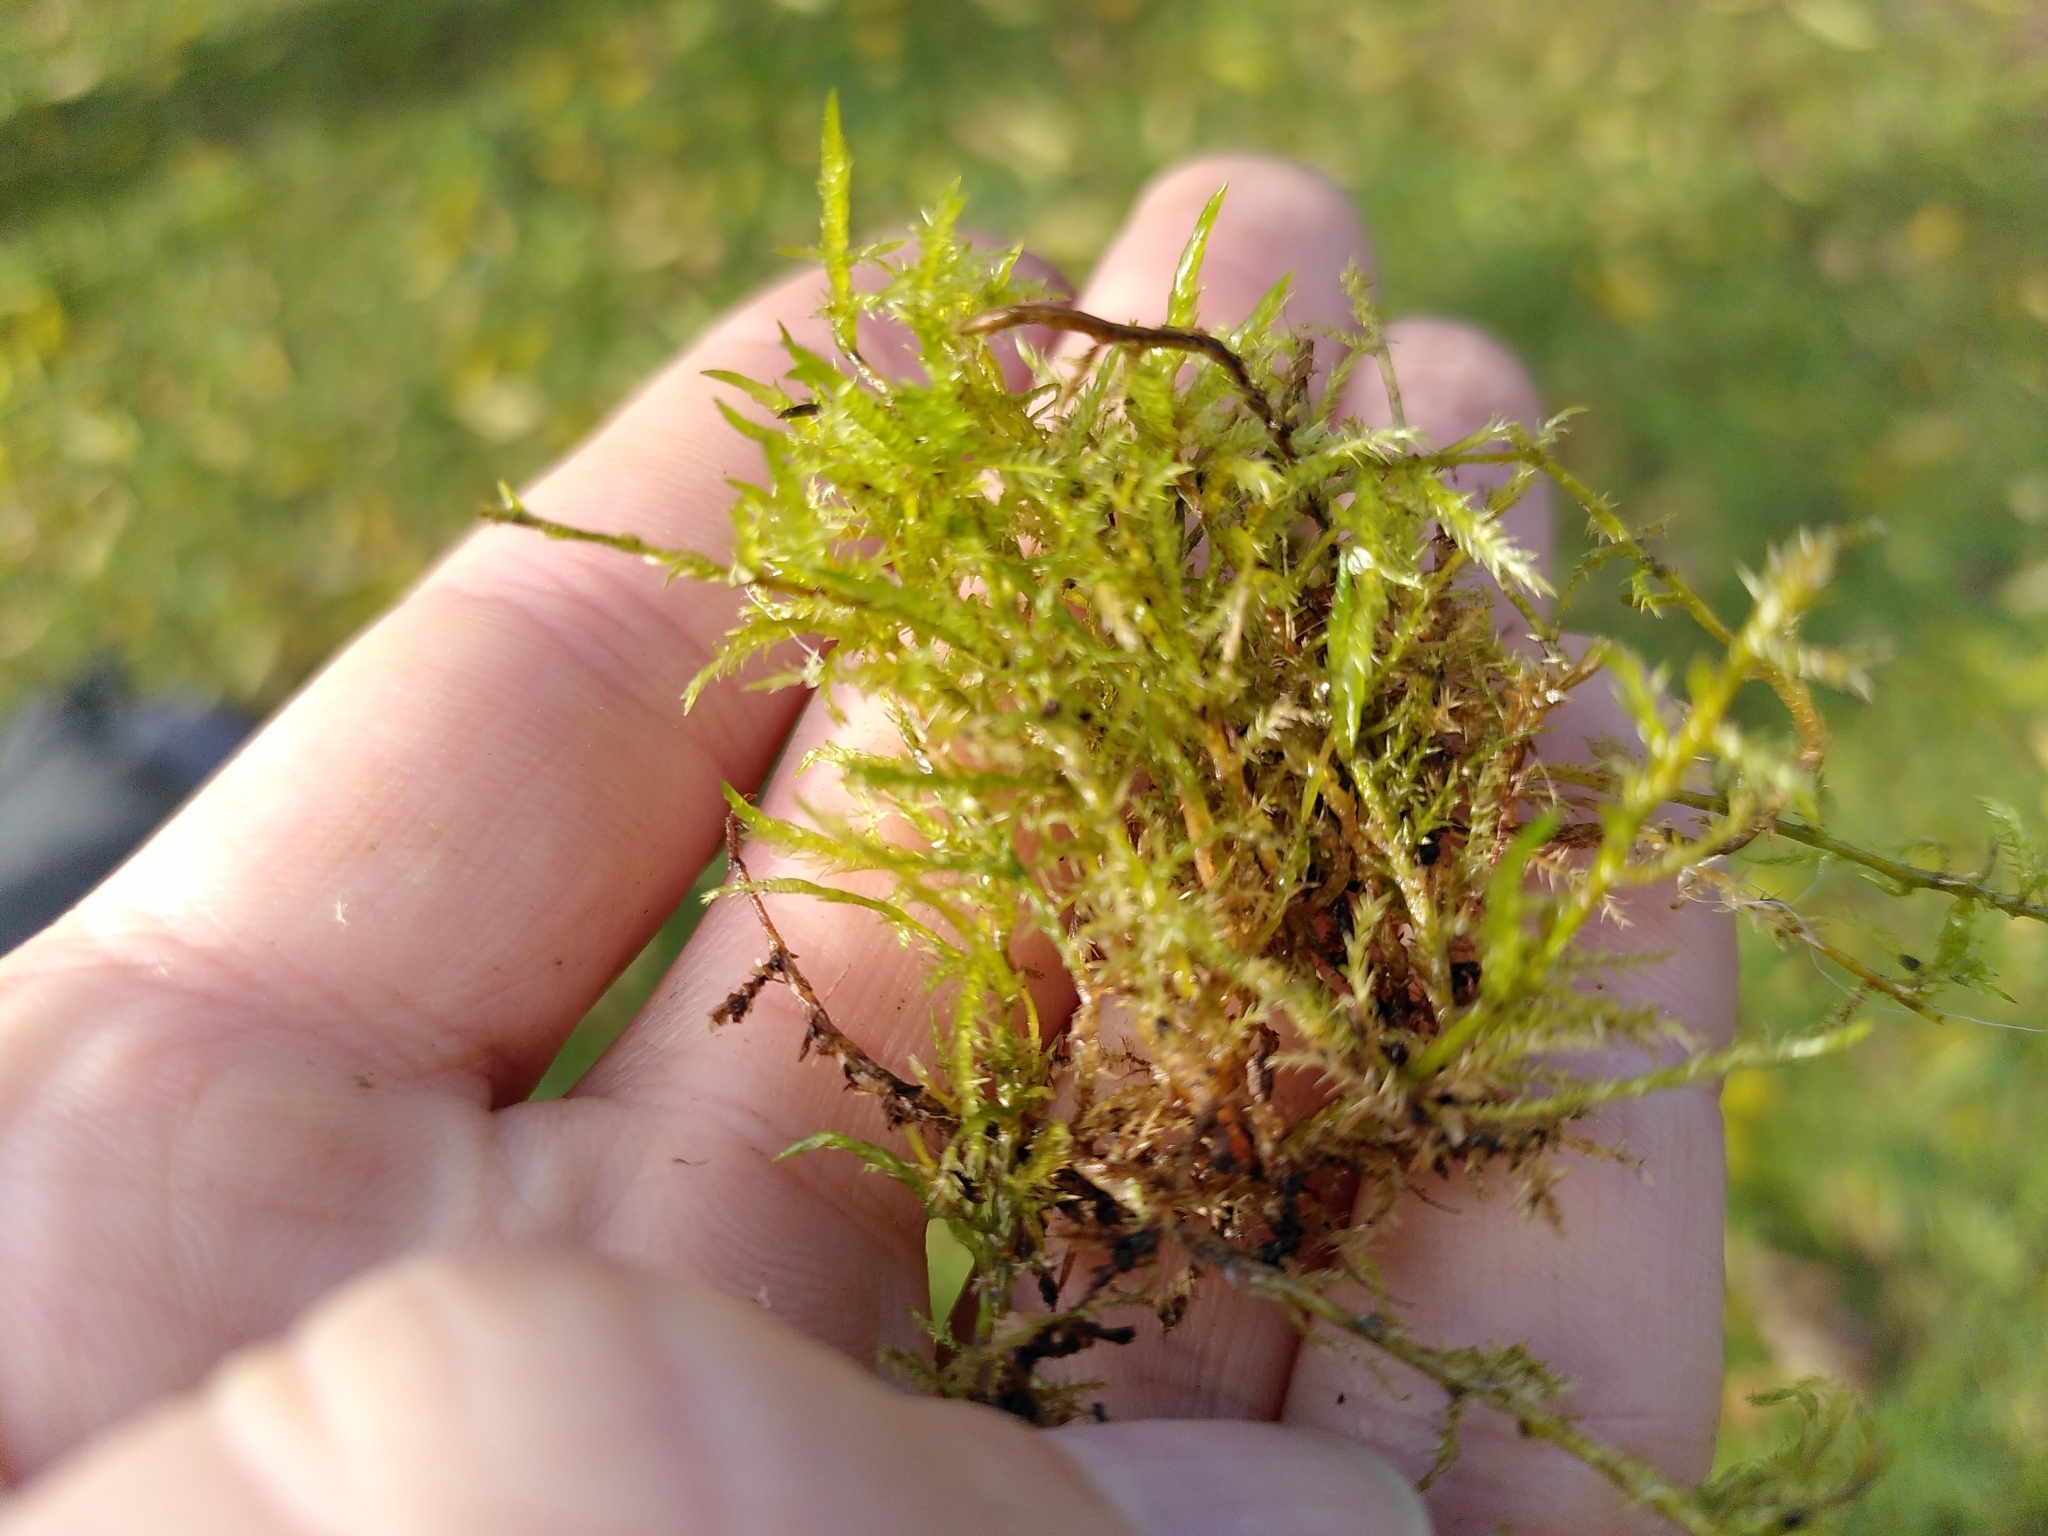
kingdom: Plantae
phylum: Bryophyta
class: Bryopsida
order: Hypnales
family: Pylaisiaceae
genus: Calliergonella
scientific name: Calliergonella cuspidata
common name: Common large wetland moss
